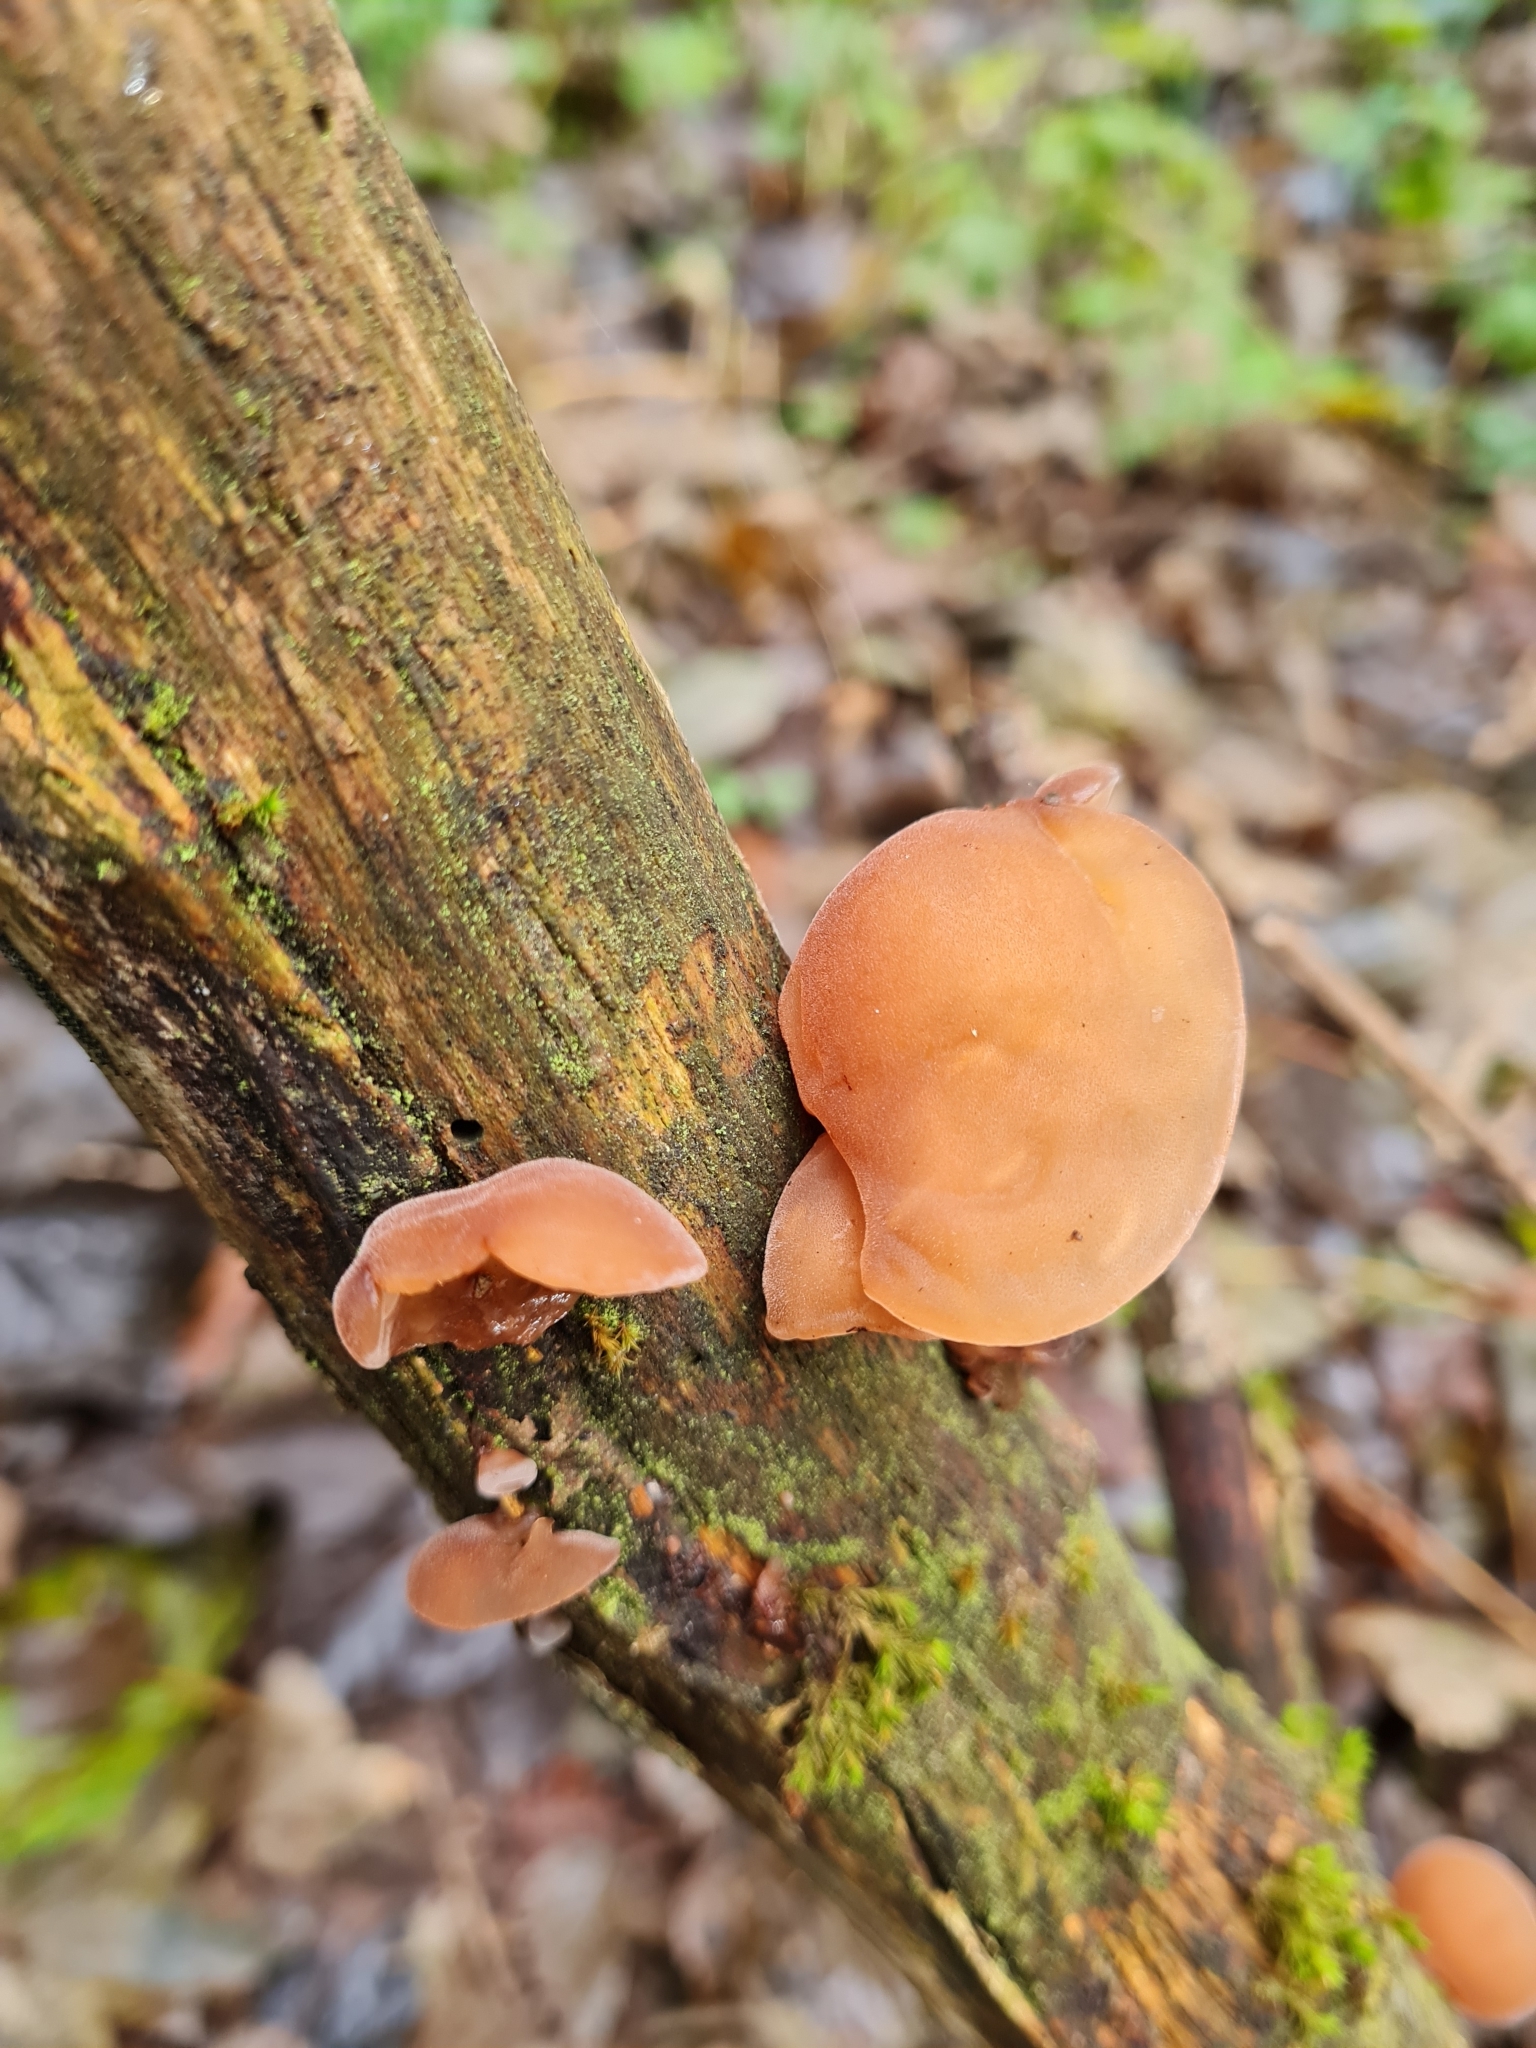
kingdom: Fungi
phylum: Basidiomycota
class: Agaricomycetes
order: Auriculariales
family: Auriculariaceae
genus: Auricularia
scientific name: Auricularia auricula-judae
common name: Jelly ear
